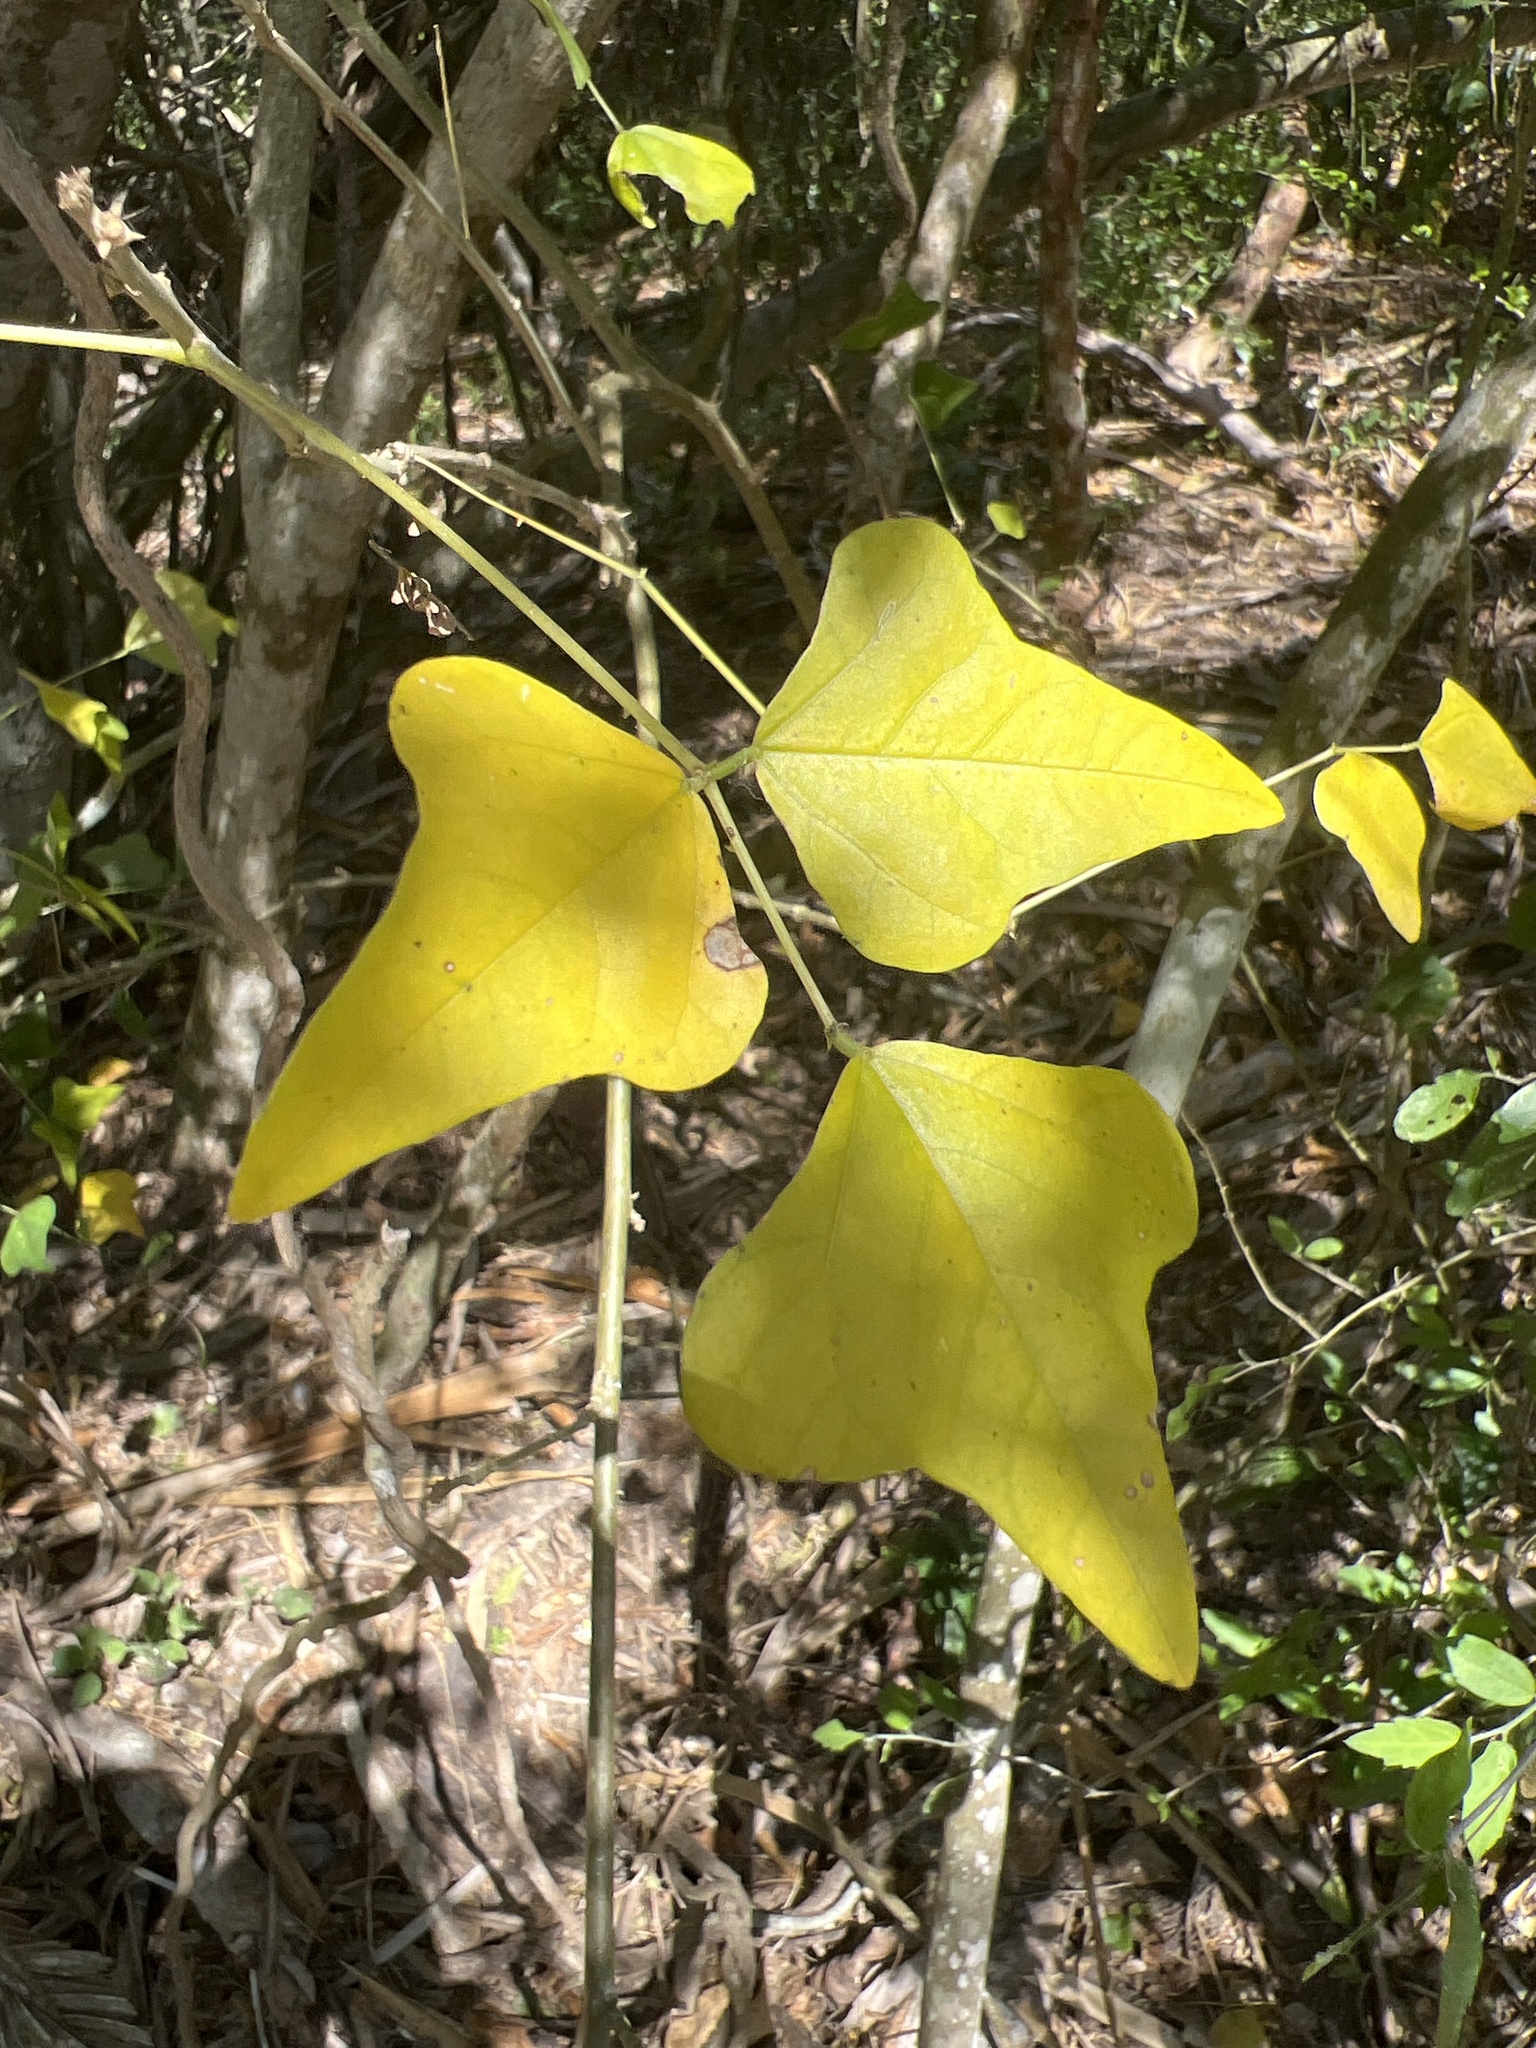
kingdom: Plantae
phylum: Tracheophyta
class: Magnoliopsida
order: Fabales
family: Fabaceae
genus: Erythrina
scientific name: Erythrina herbacea
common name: Coral-bean
